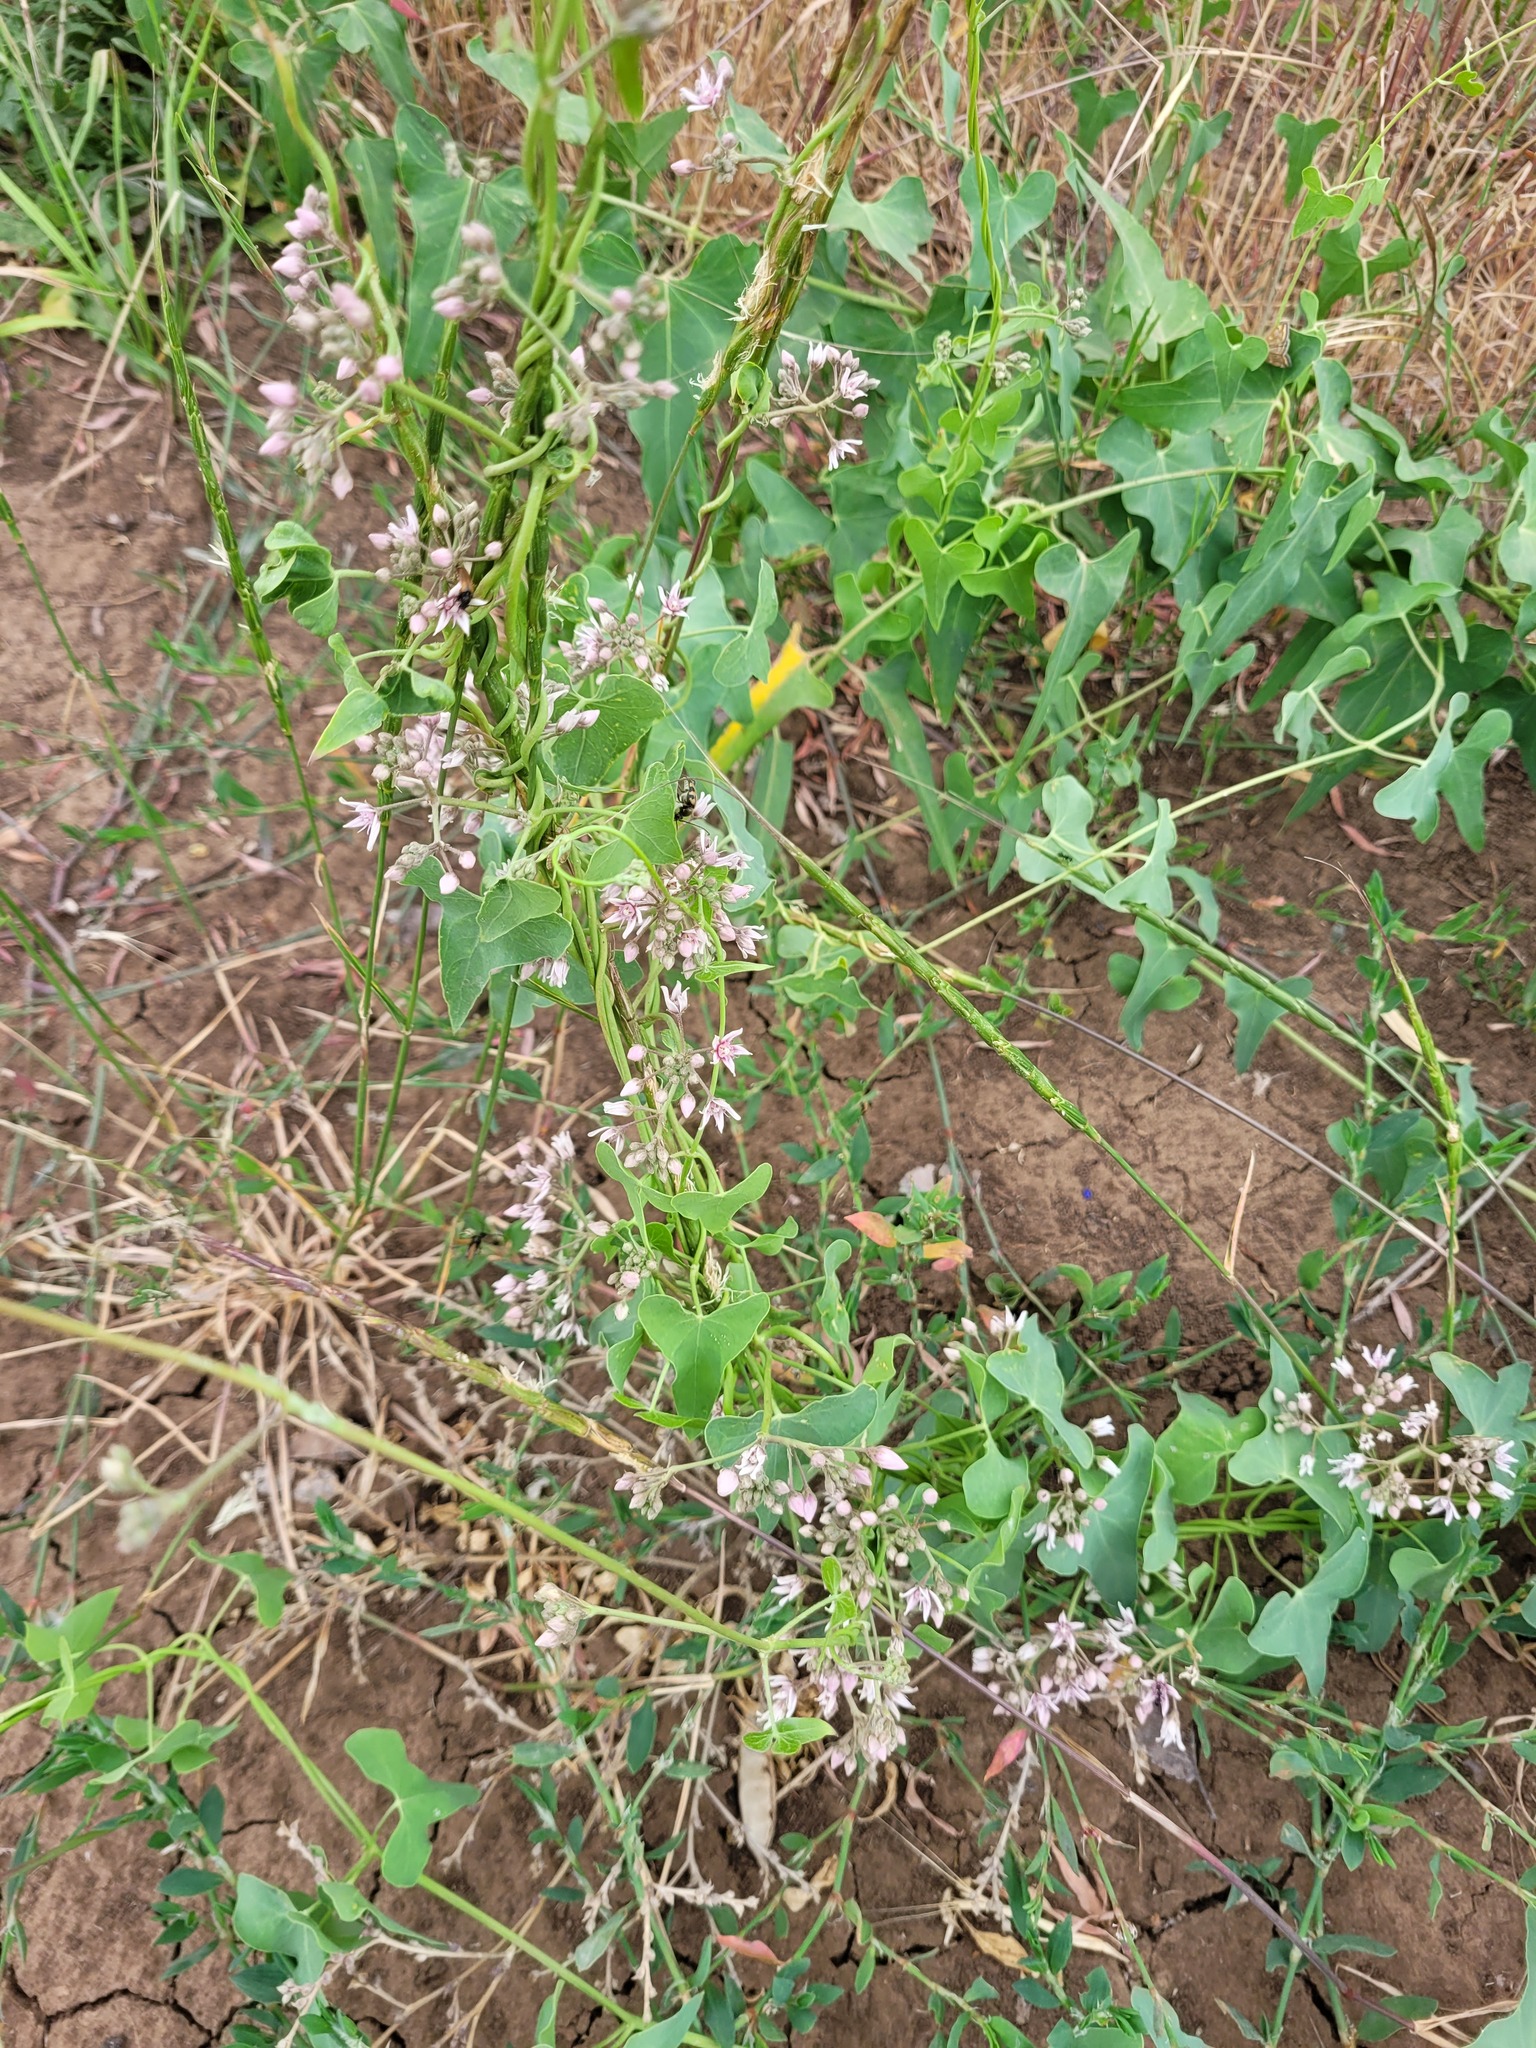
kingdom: Plantae
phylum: Tracheophyta
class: Magnoliopsida
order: Gentianales
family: Apocynaceae
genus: Cynanchum
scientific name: Cynanchum acutum
